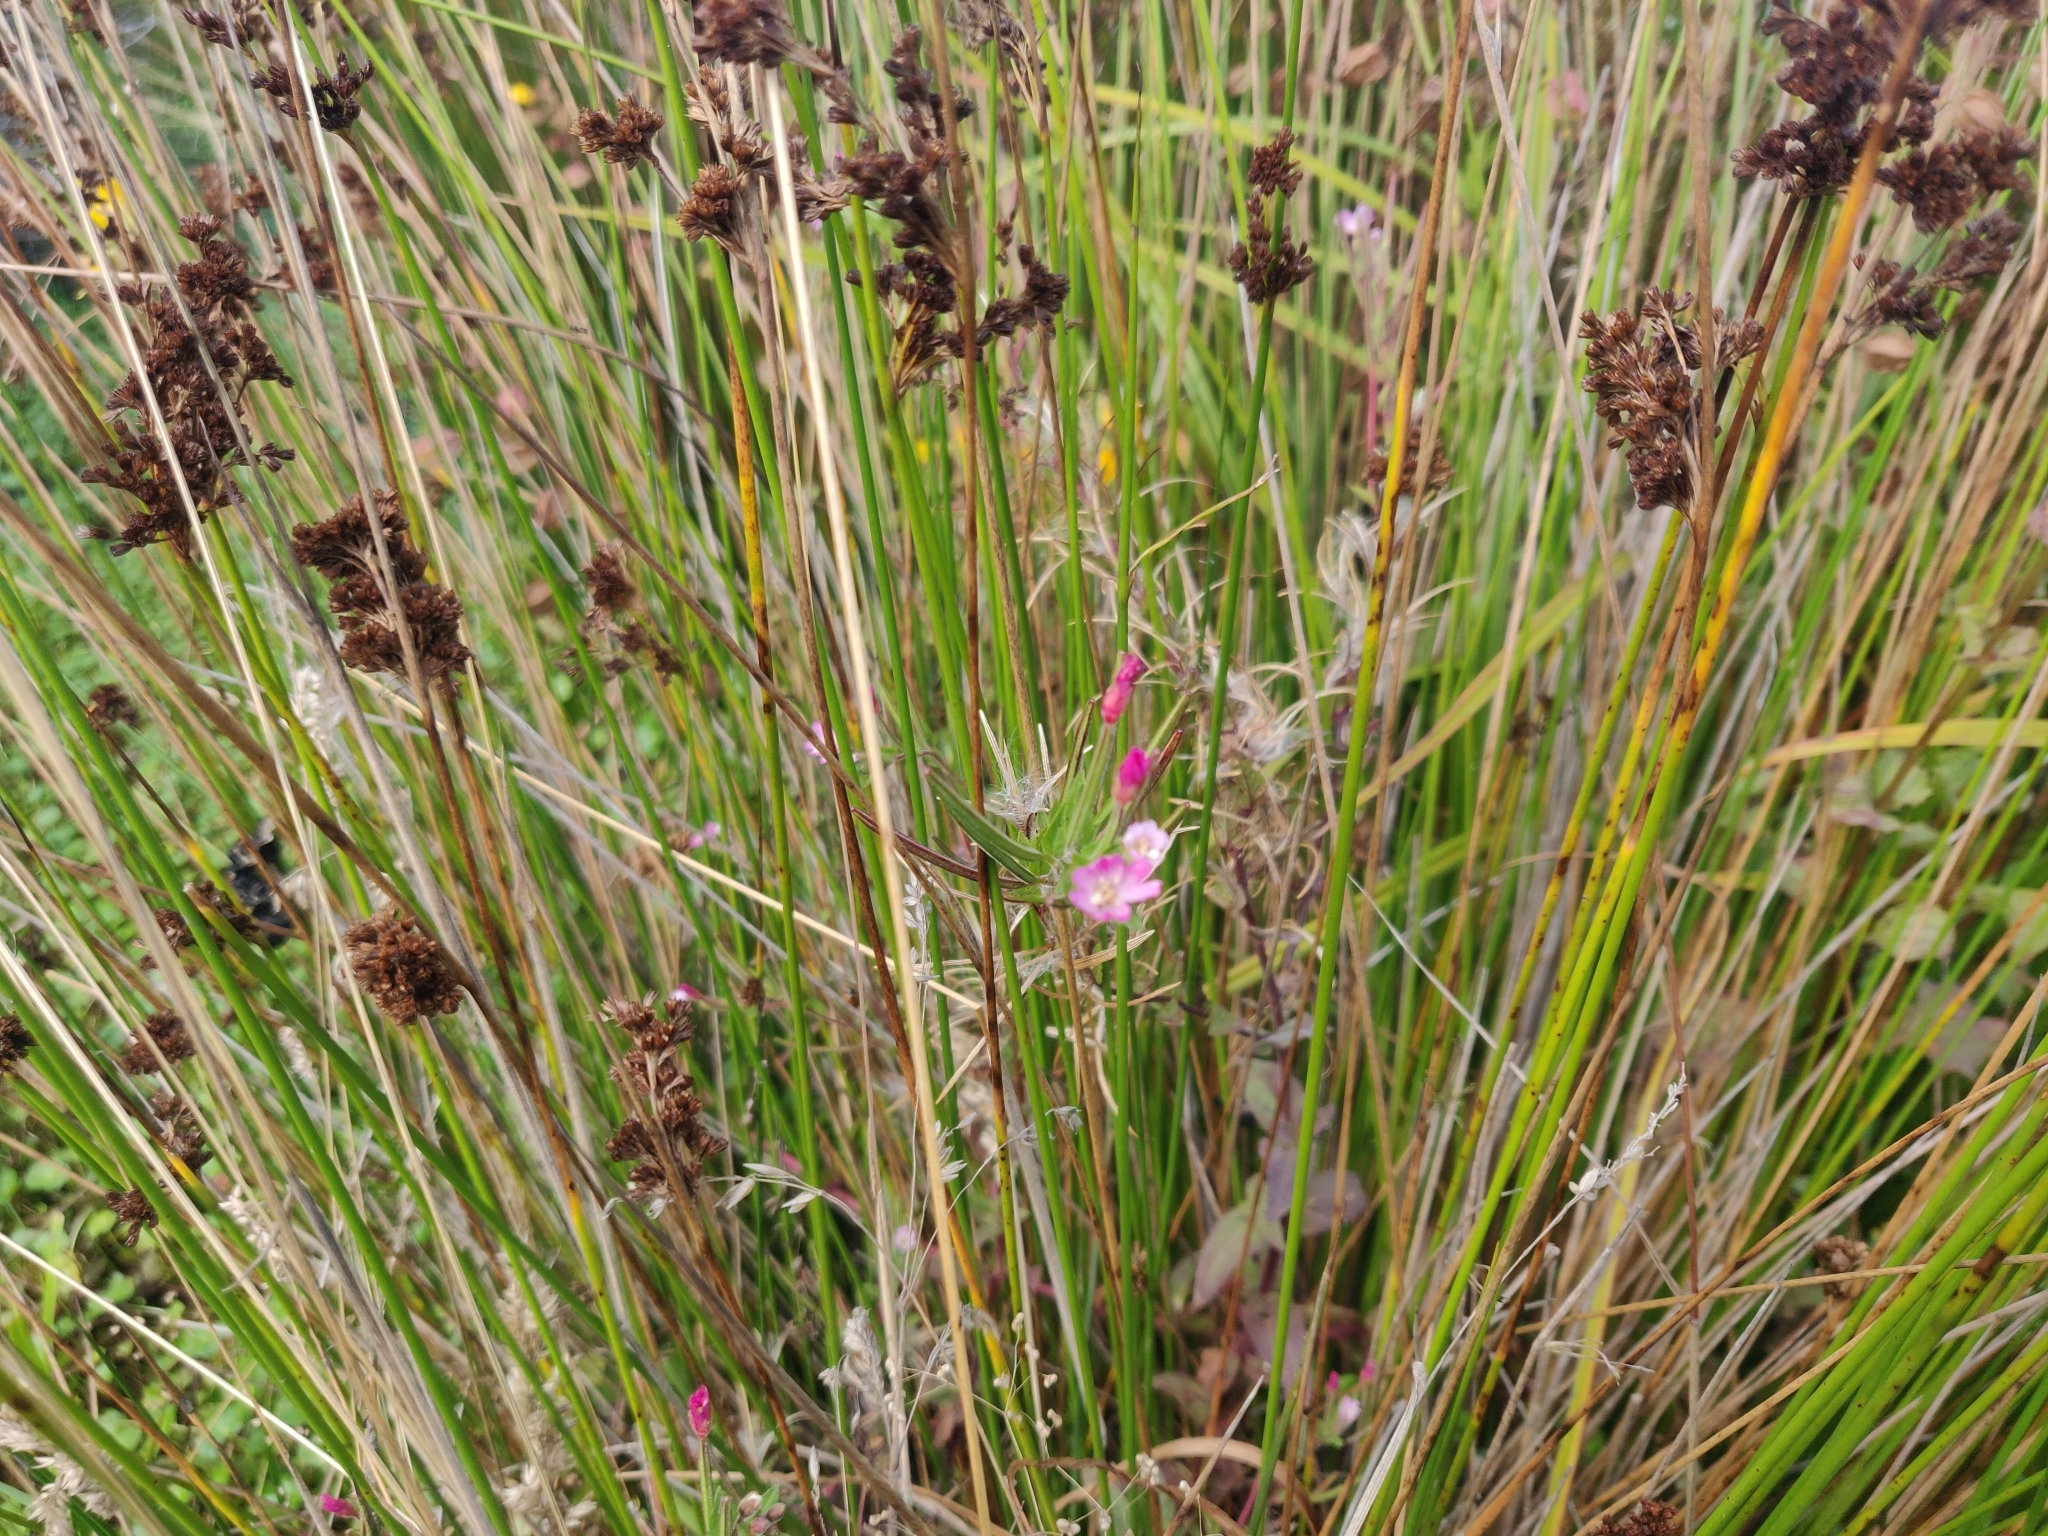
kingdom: Plantae
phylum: Tracheophyta
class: Magnoliopsida
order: Myrtales
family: Onagraceae
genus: Epilobium
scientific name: Epilobium ciliatum
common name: American willowherb
